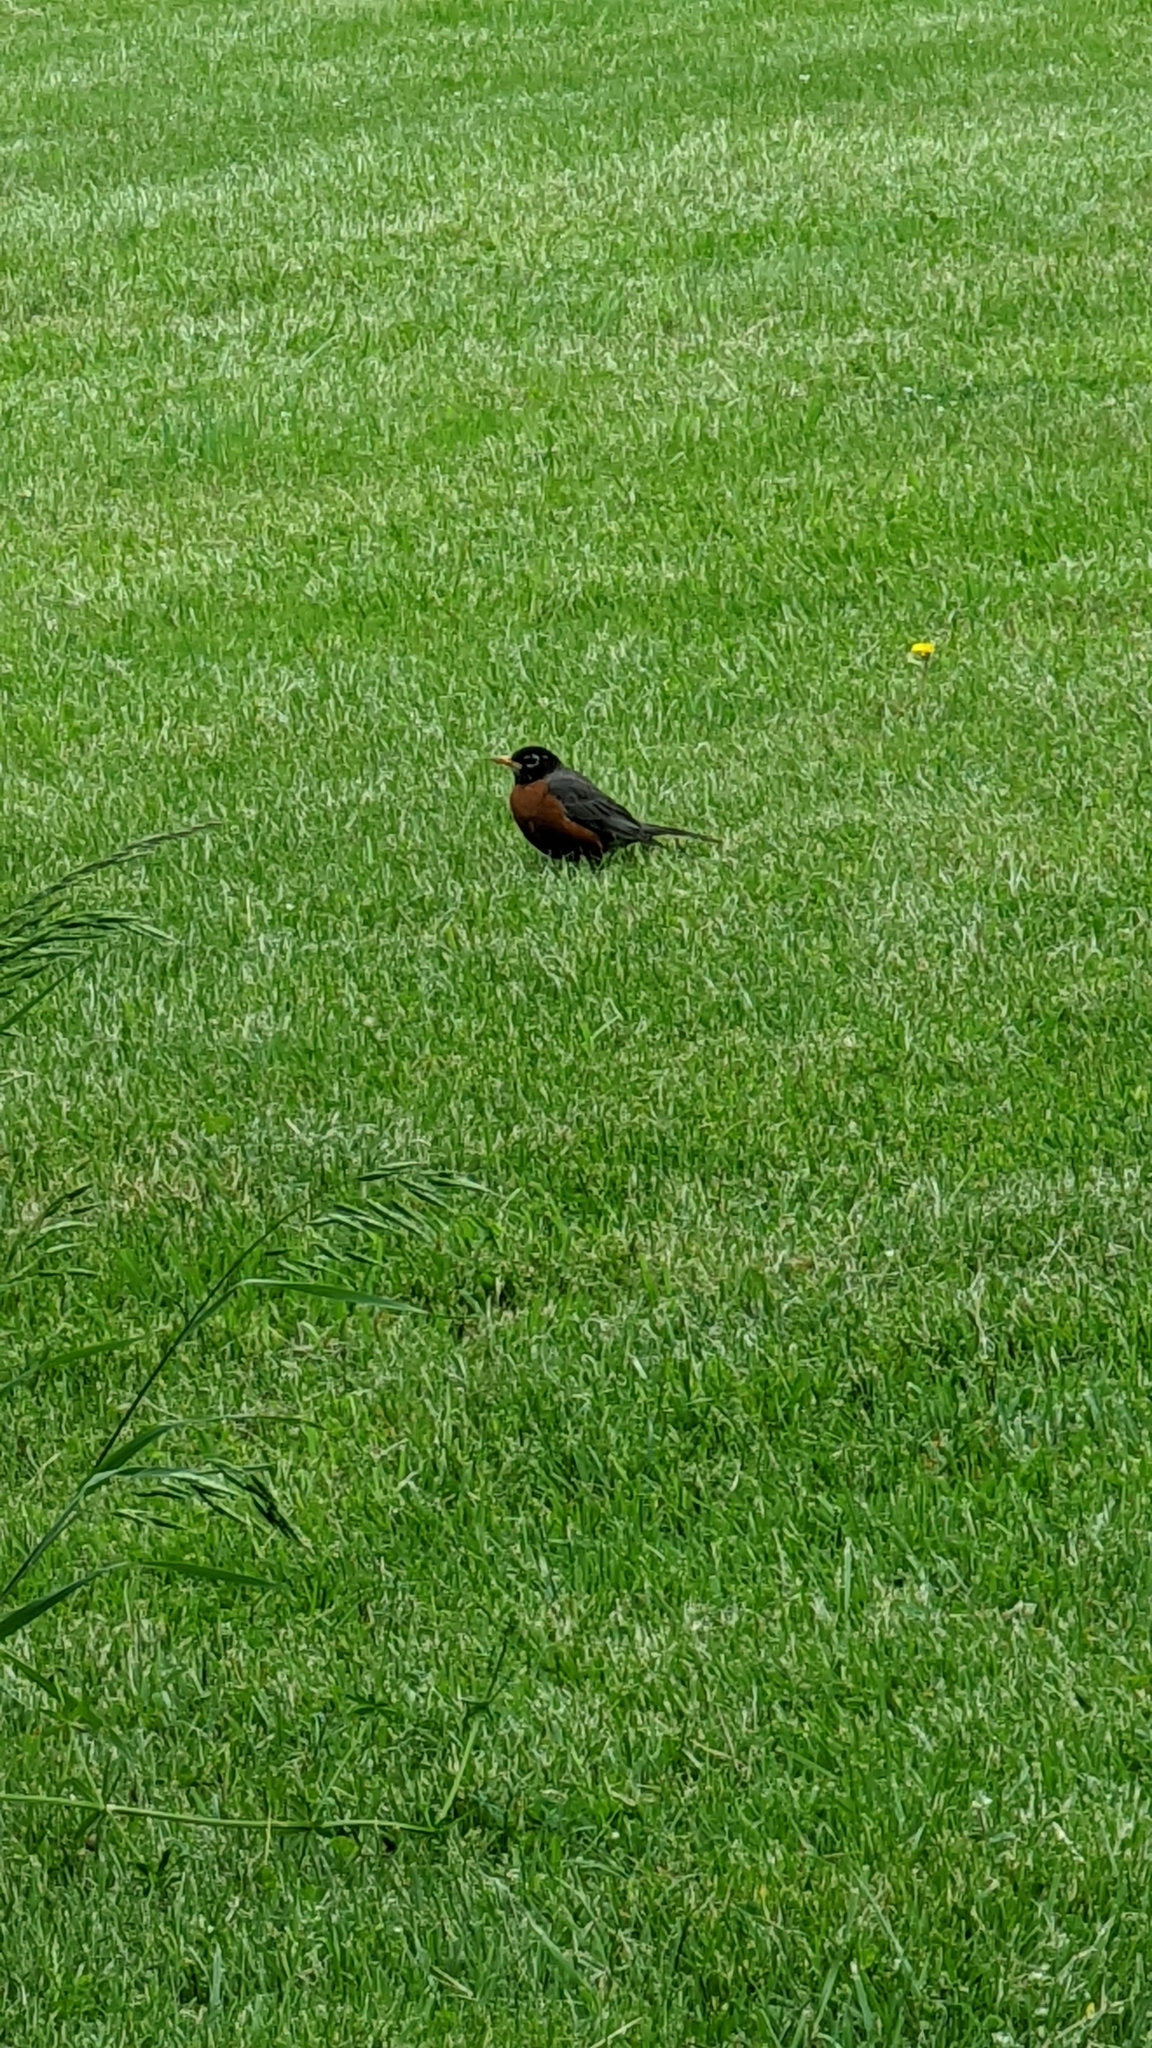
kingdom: Animalia
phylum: Chordata
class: Aves
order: Passeriformes
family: Turdidae
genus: Turdus
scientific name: Turdus migratorius
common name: American robin
